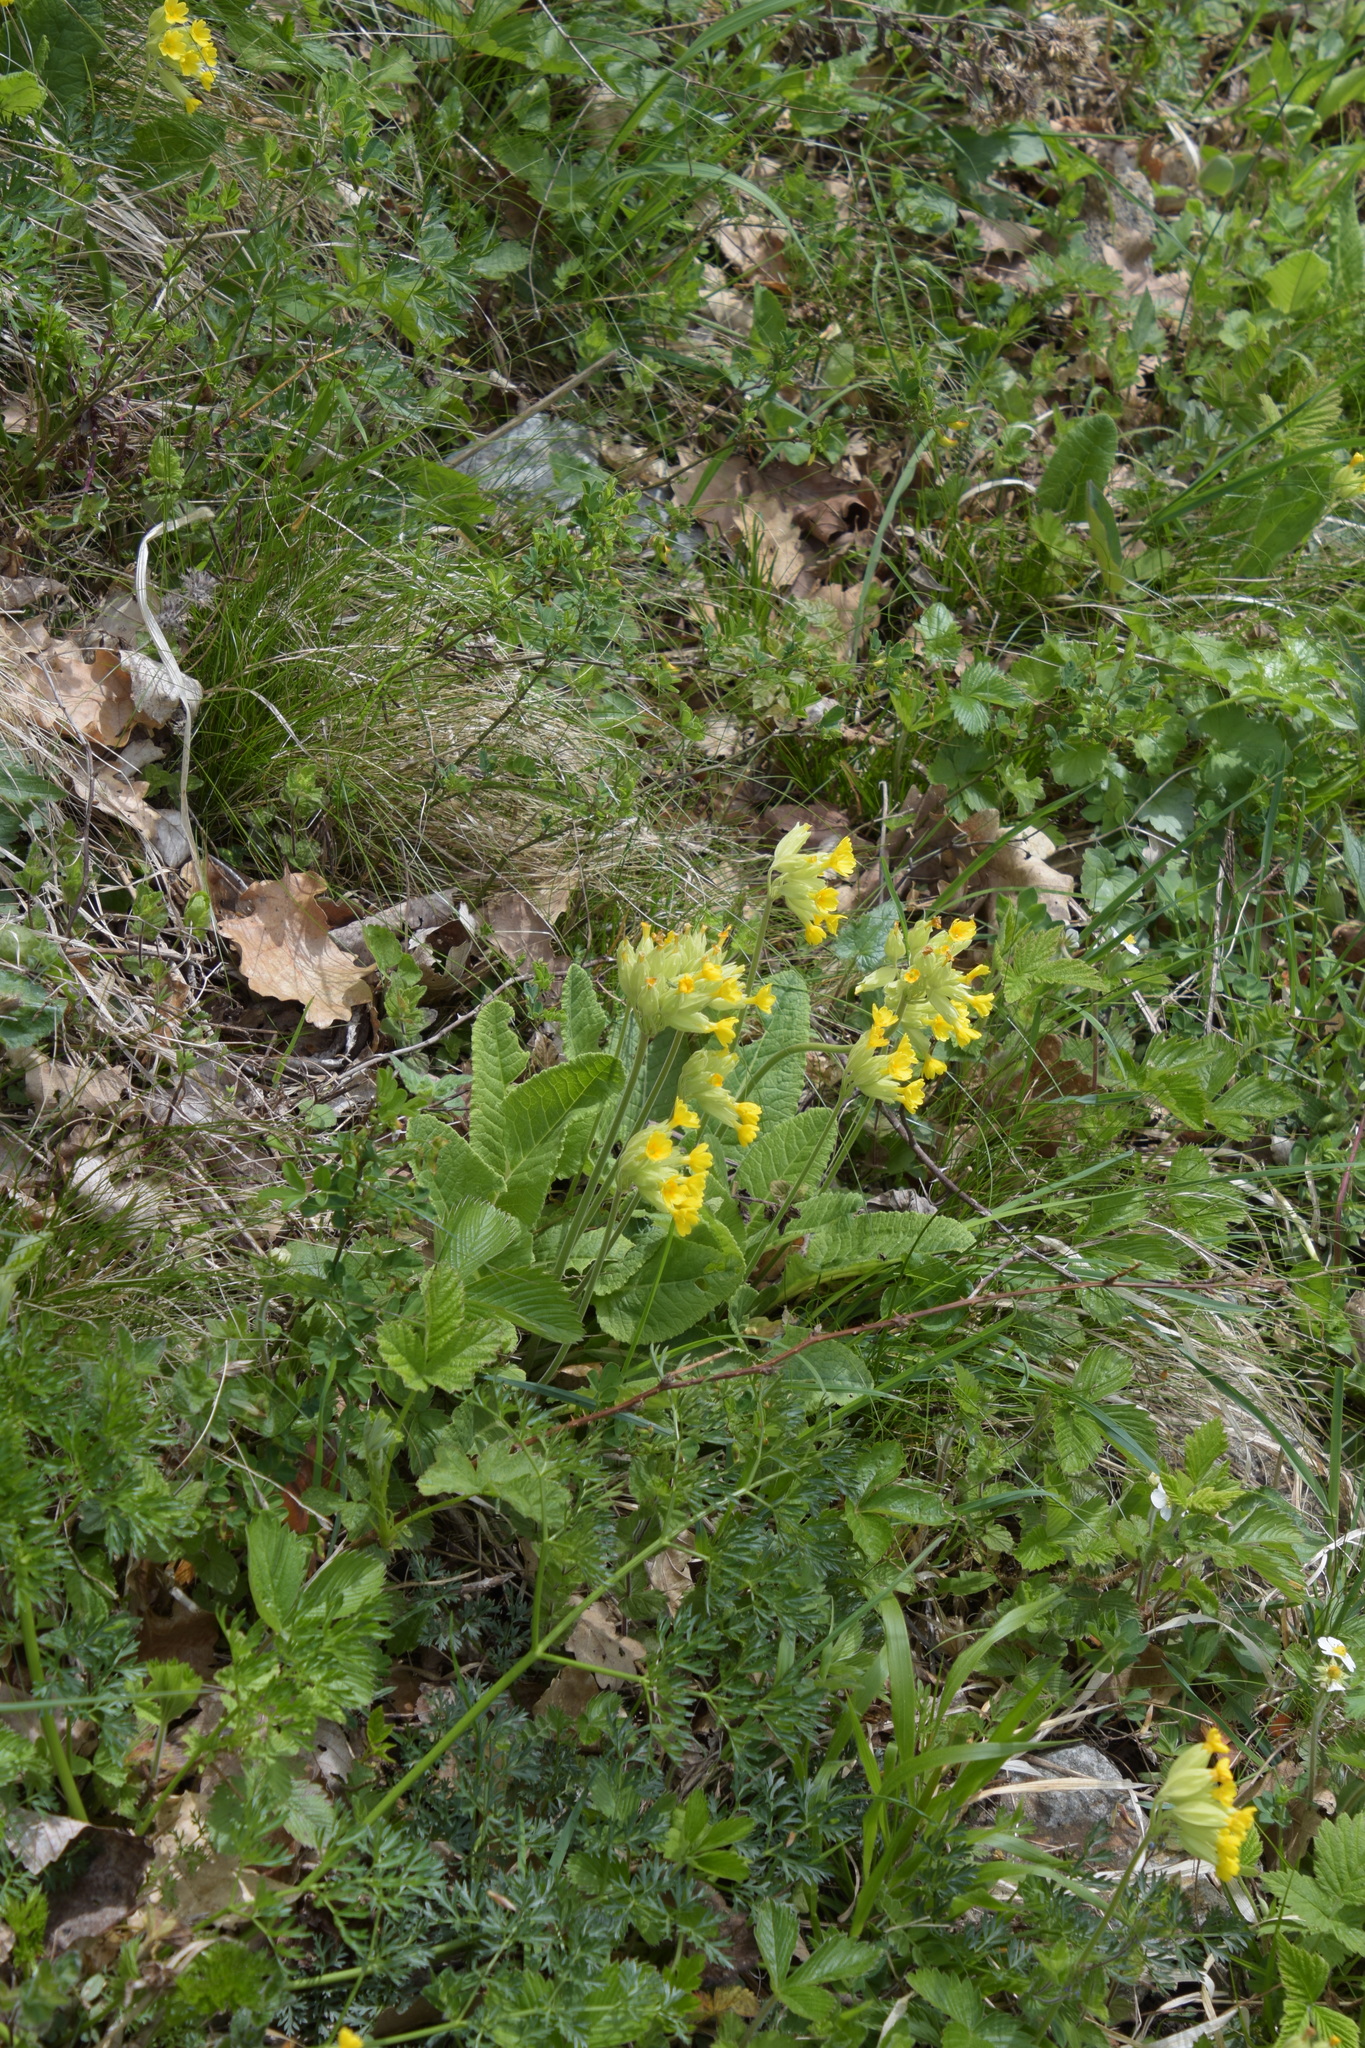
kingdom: Plantae
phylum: Tracheophyta
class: Magnoliopsida
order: Ericales
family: Primulaceae
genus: Primula
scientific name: Primula veris
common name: Cowslip
